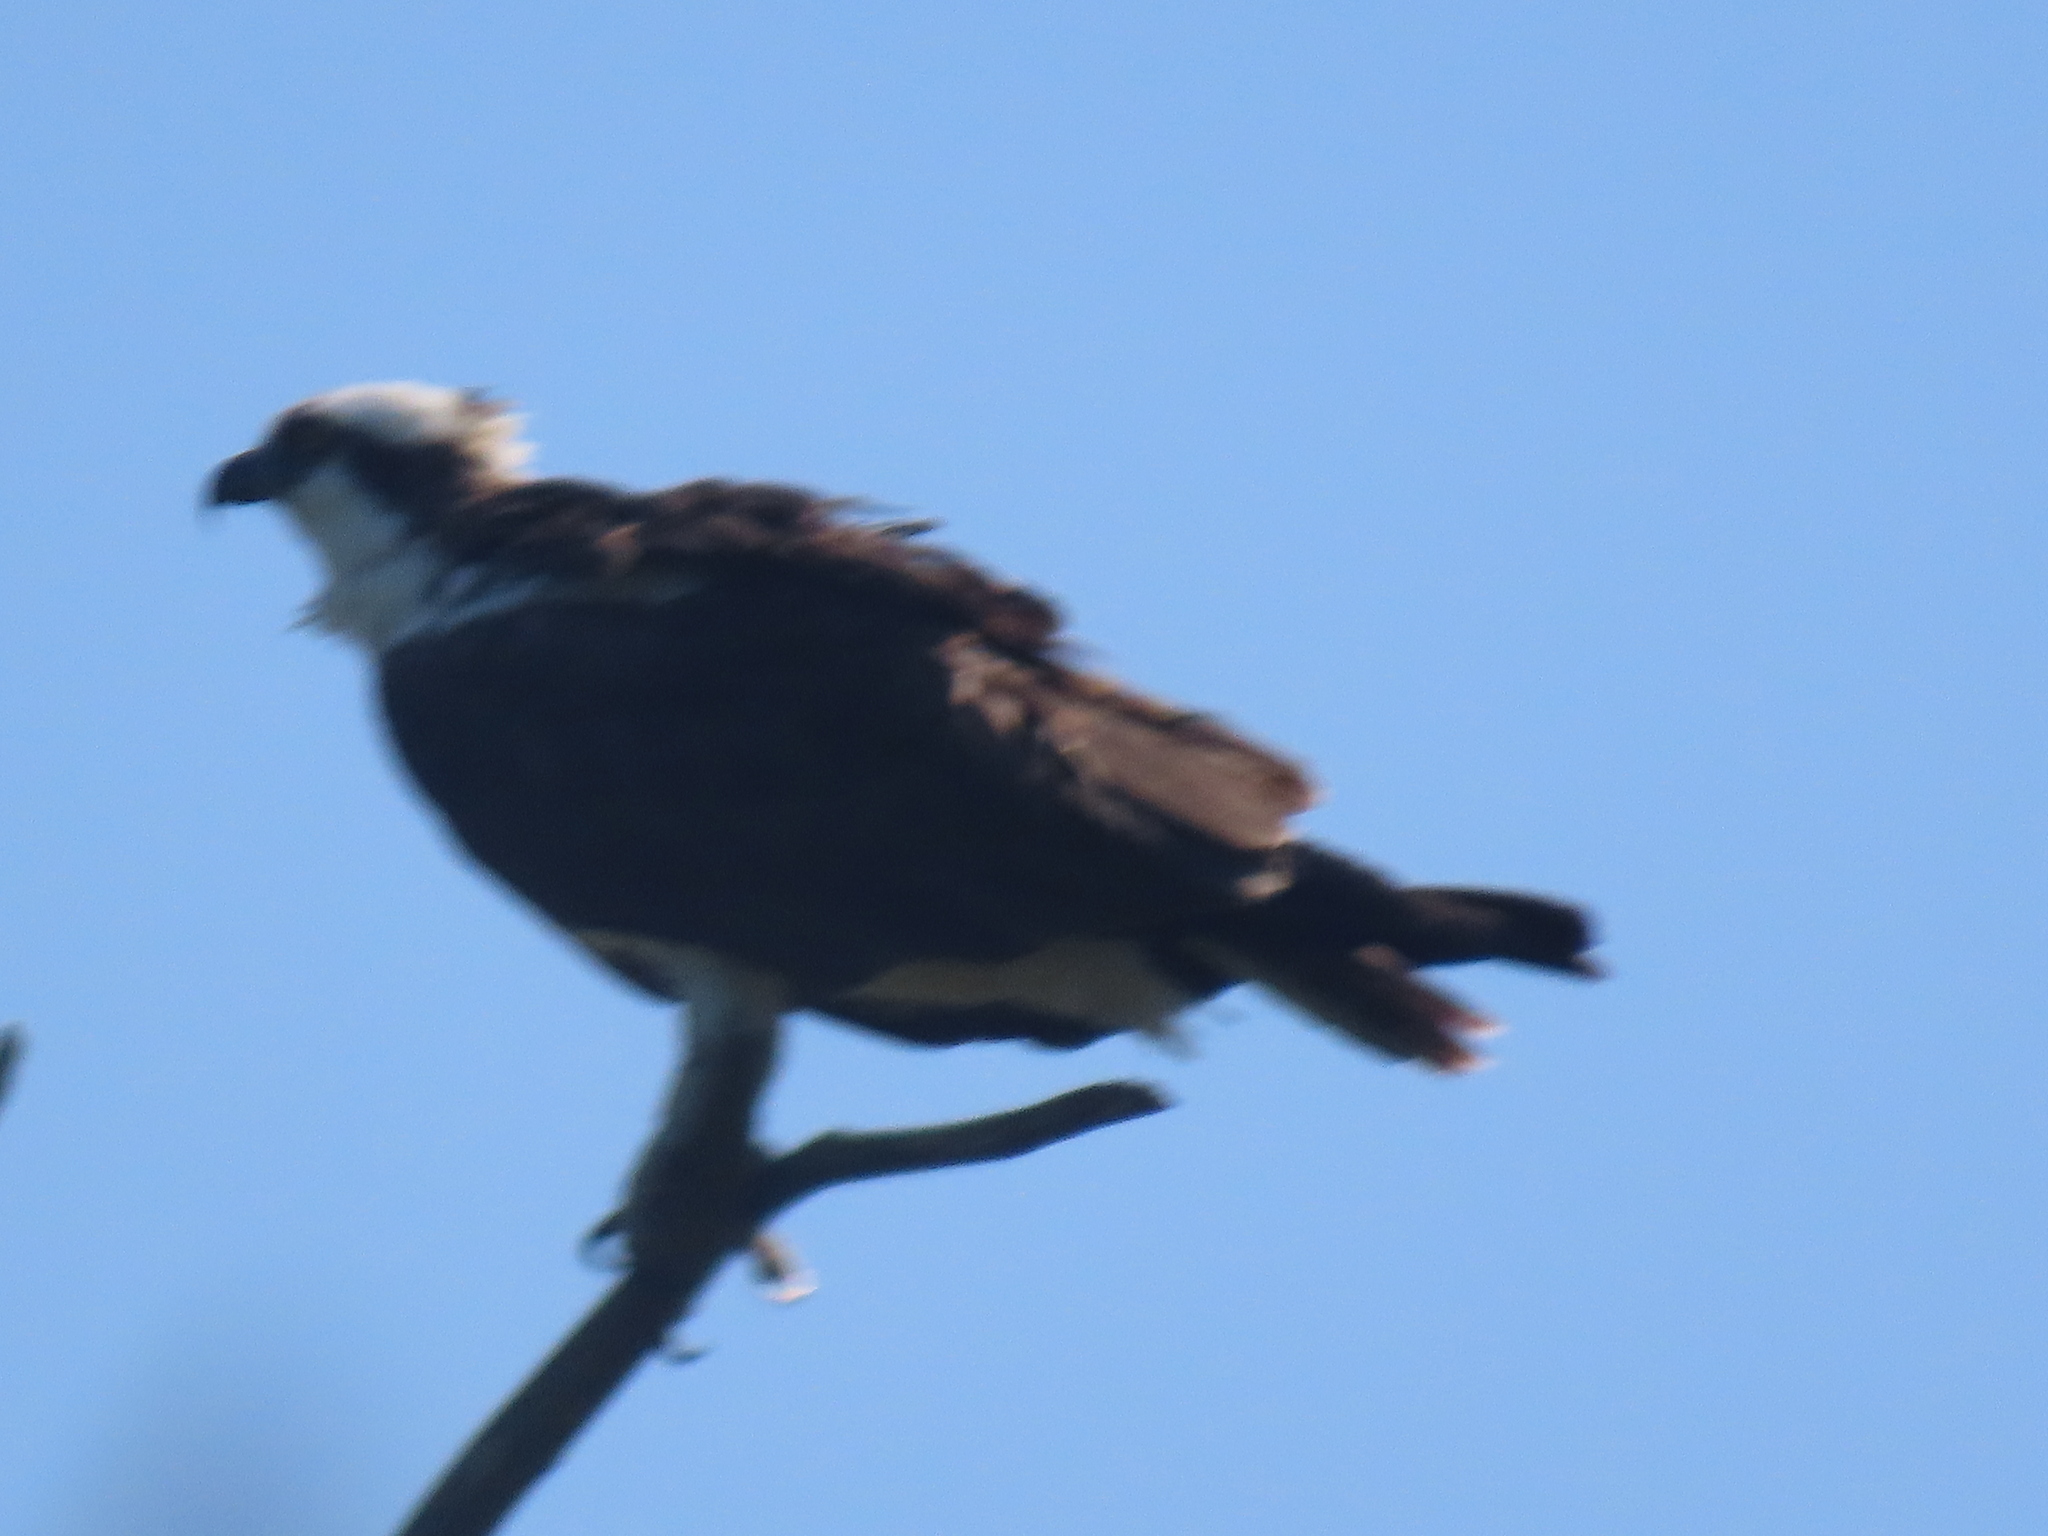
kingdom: Animalia
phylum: Chordata
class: Aves
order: Accipitriformes
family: Pandionidae
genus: Pandion
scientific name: Pandion haliaetus
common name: Osprey
